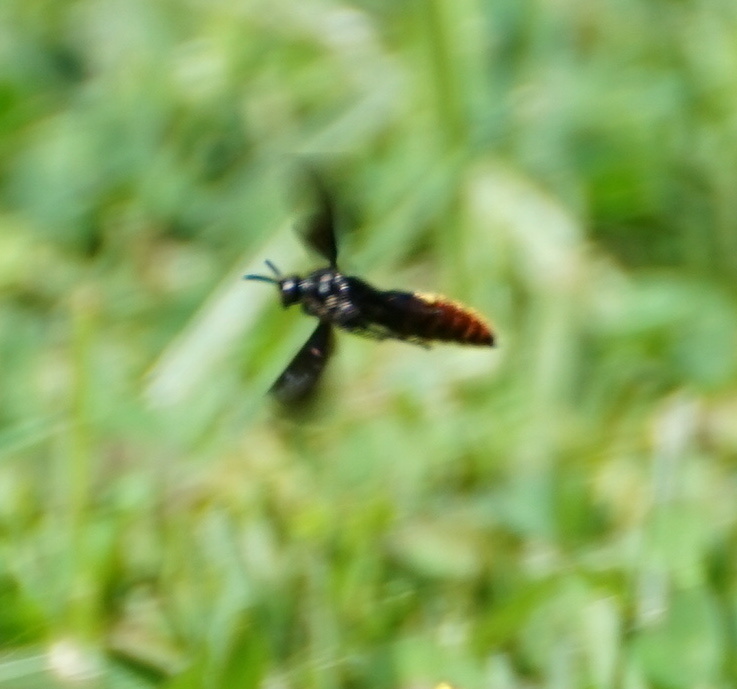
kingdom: Animalia
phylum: Arthropoda
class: Insecta
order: Hymenoptera
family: Scoliidae
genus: Scolia
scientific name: Scolia dubia
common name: Blue-winged scoliid wasp
